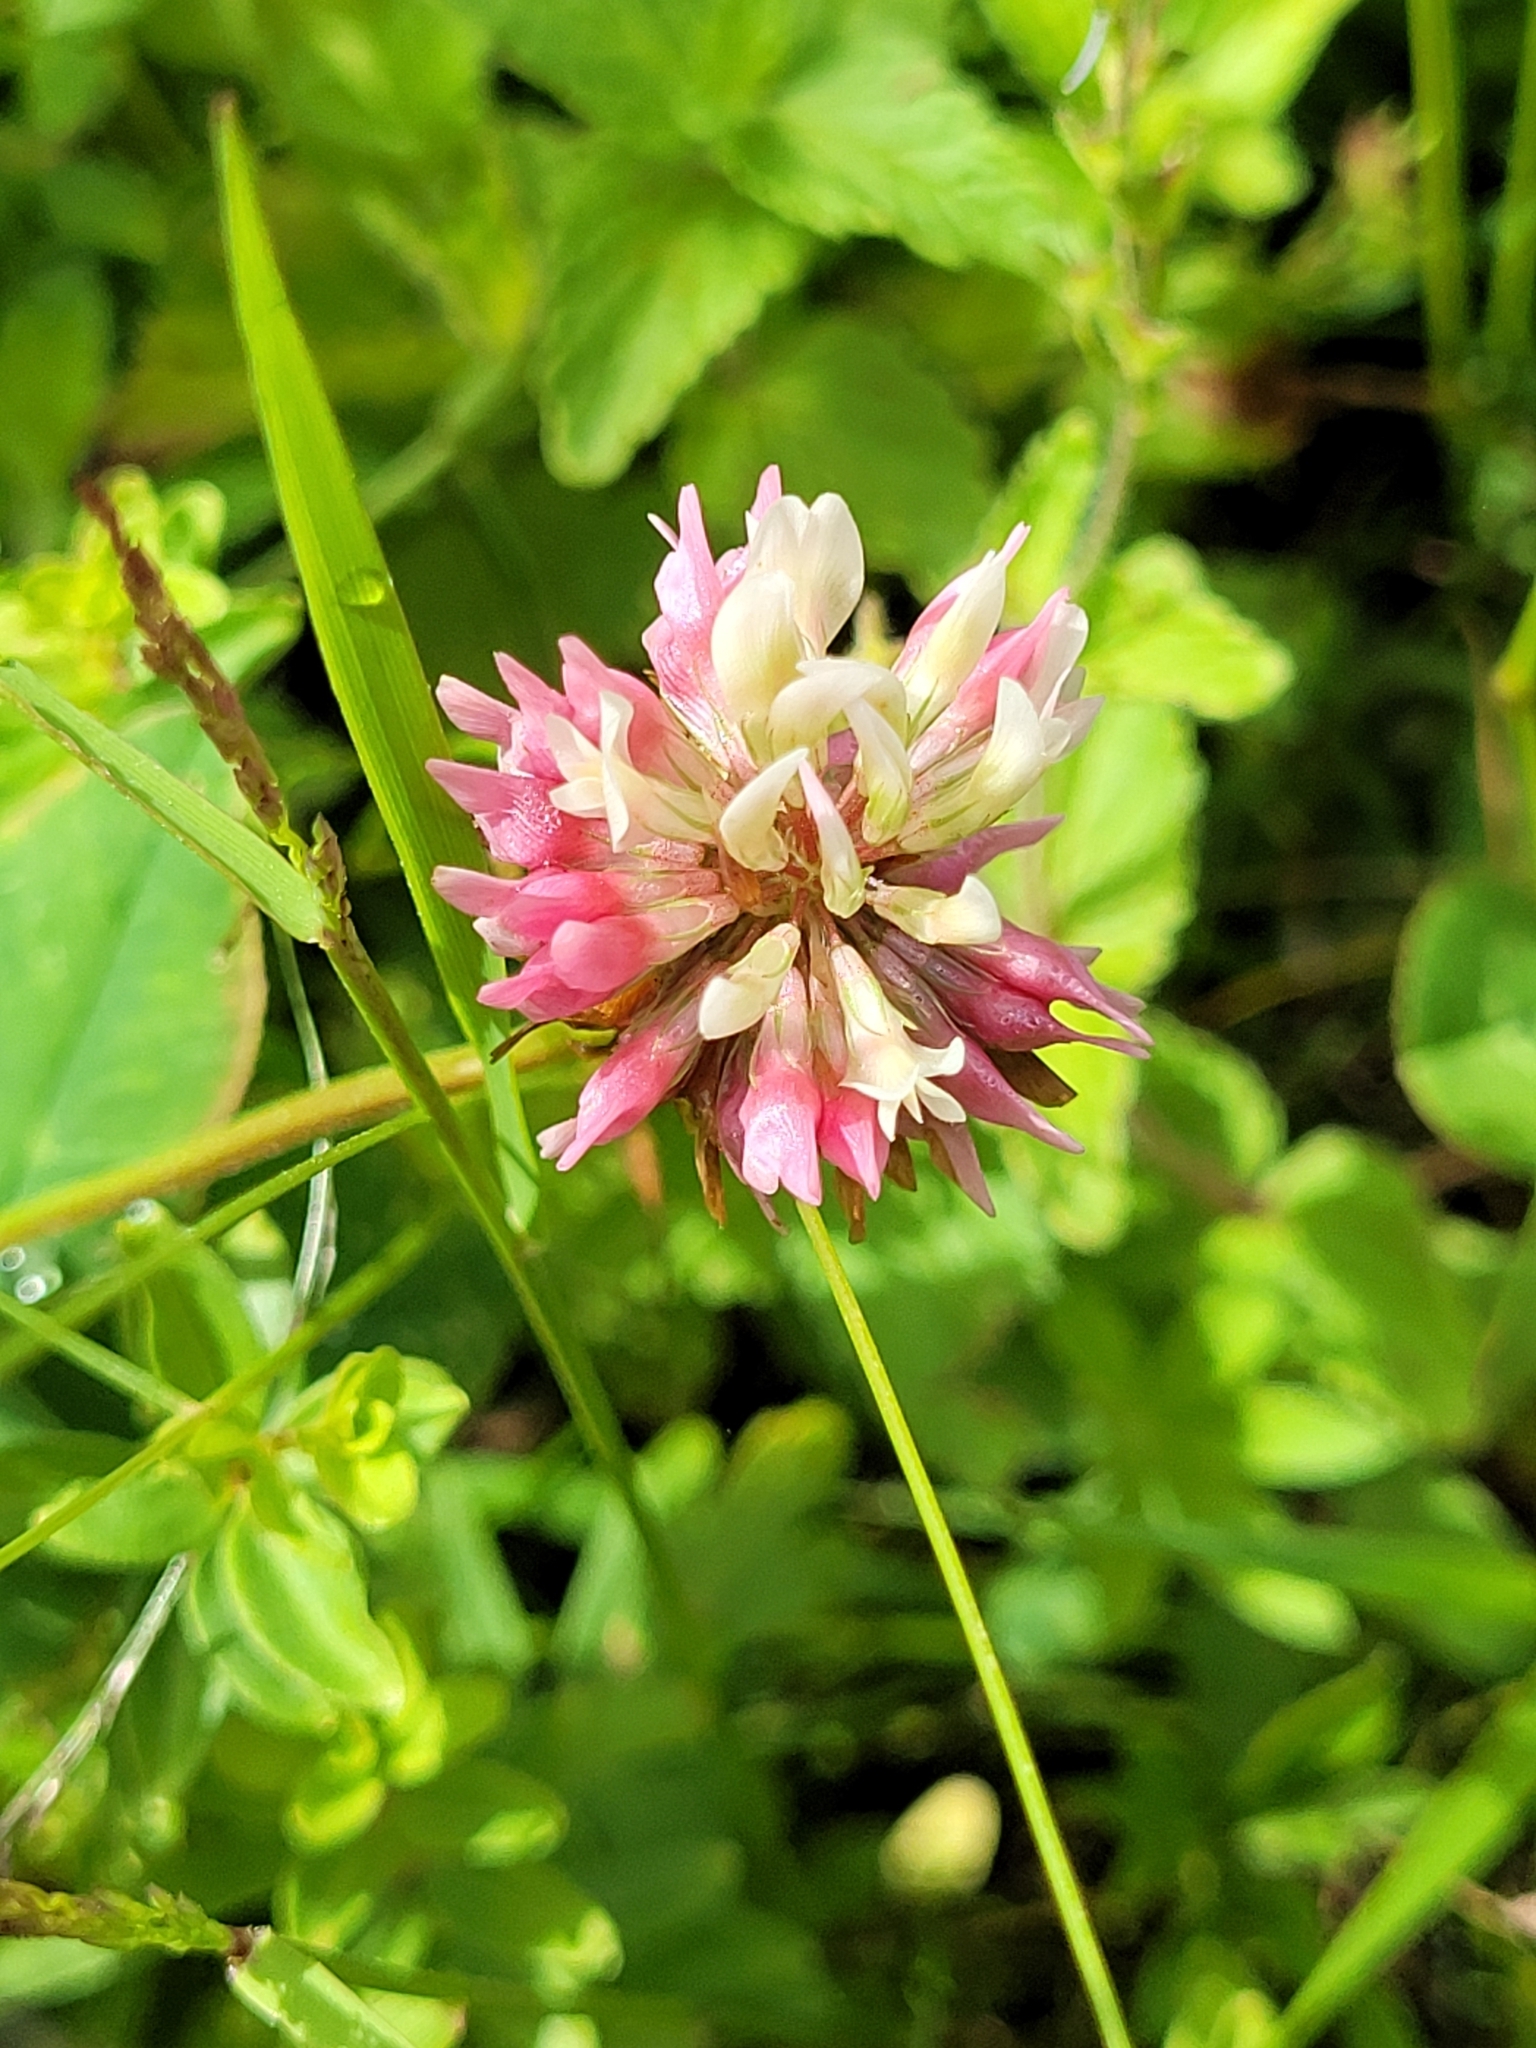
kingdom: Plantae
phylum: Tracheophyta
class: Magnoliopsida
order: Fabales
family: Fabaceae
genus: Trifolium
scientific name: Trifolium hybridum
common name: Alsike clover
